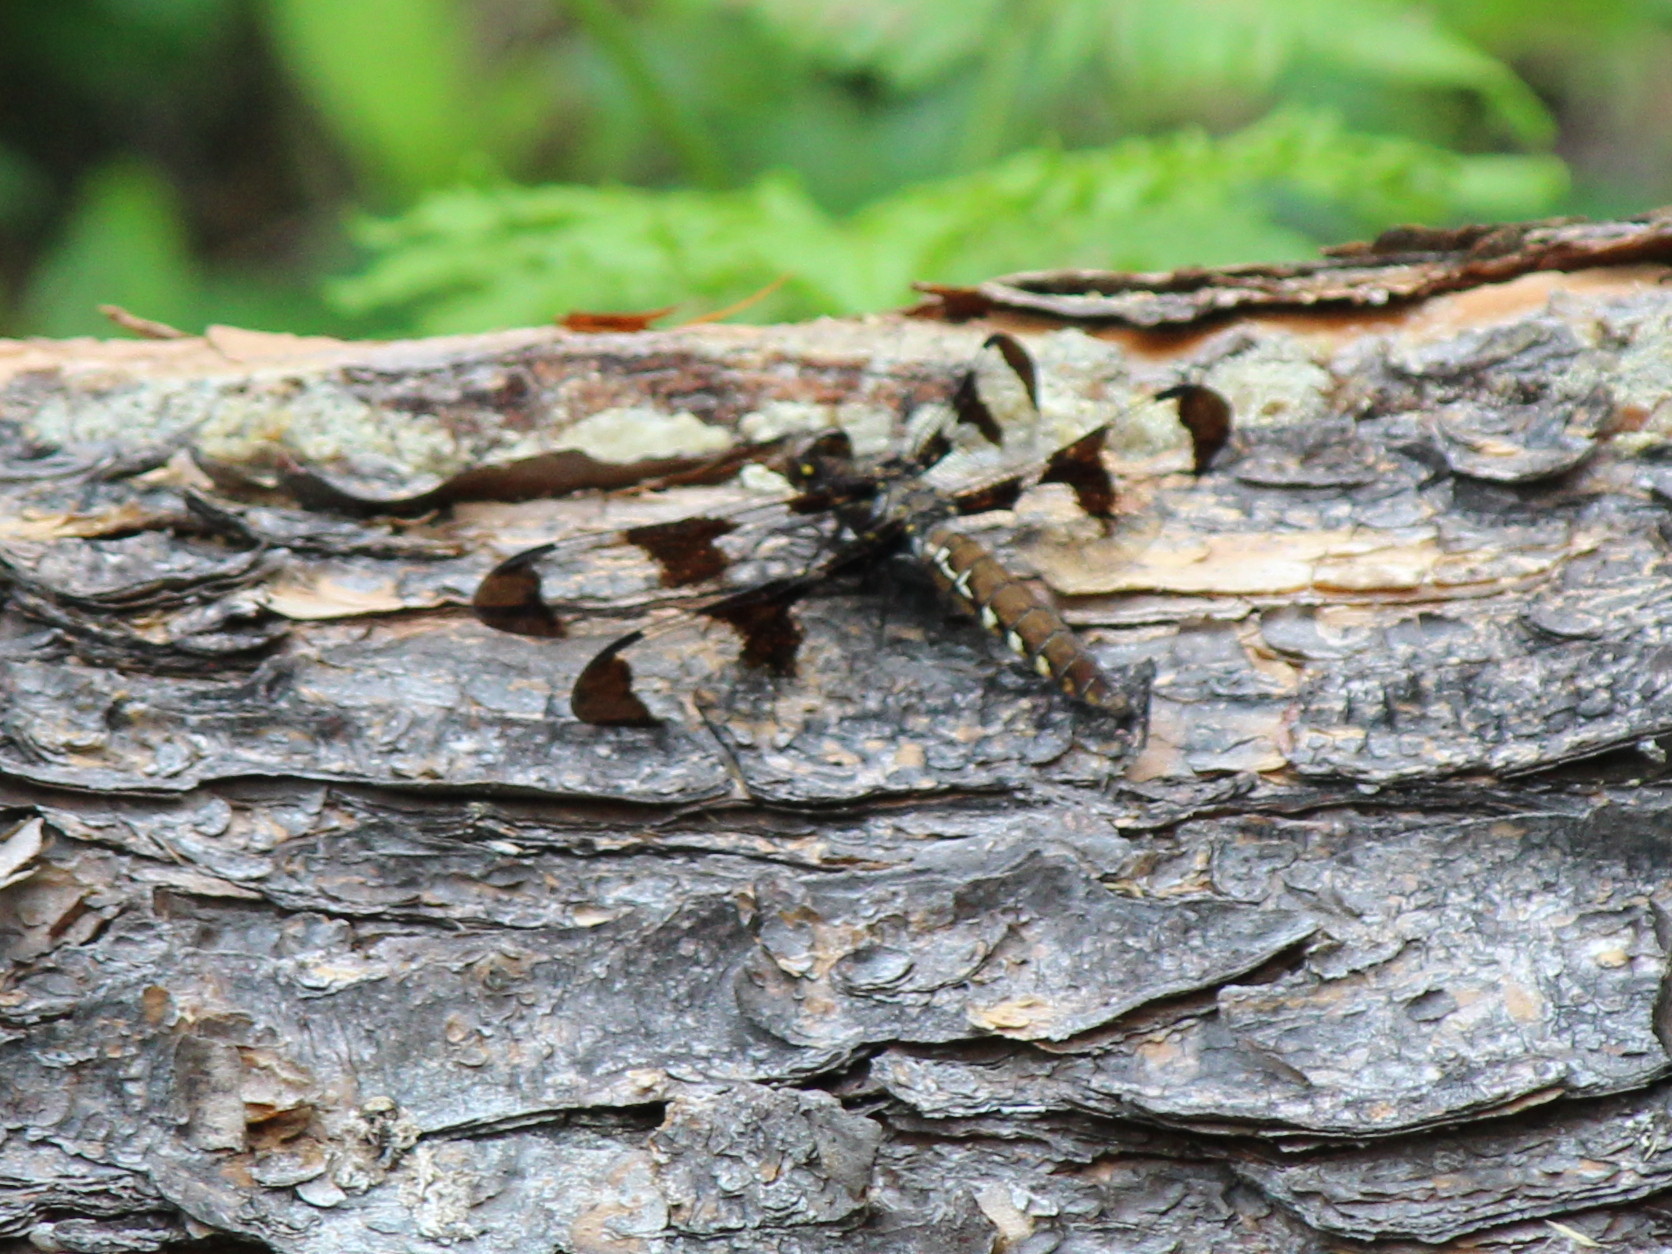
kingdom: Animalia
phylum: Arthropoda
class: Insecta
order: Odonata
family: Libellulidae
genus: Plathemis
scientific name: Plathemis lydia
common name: Common whitetail
